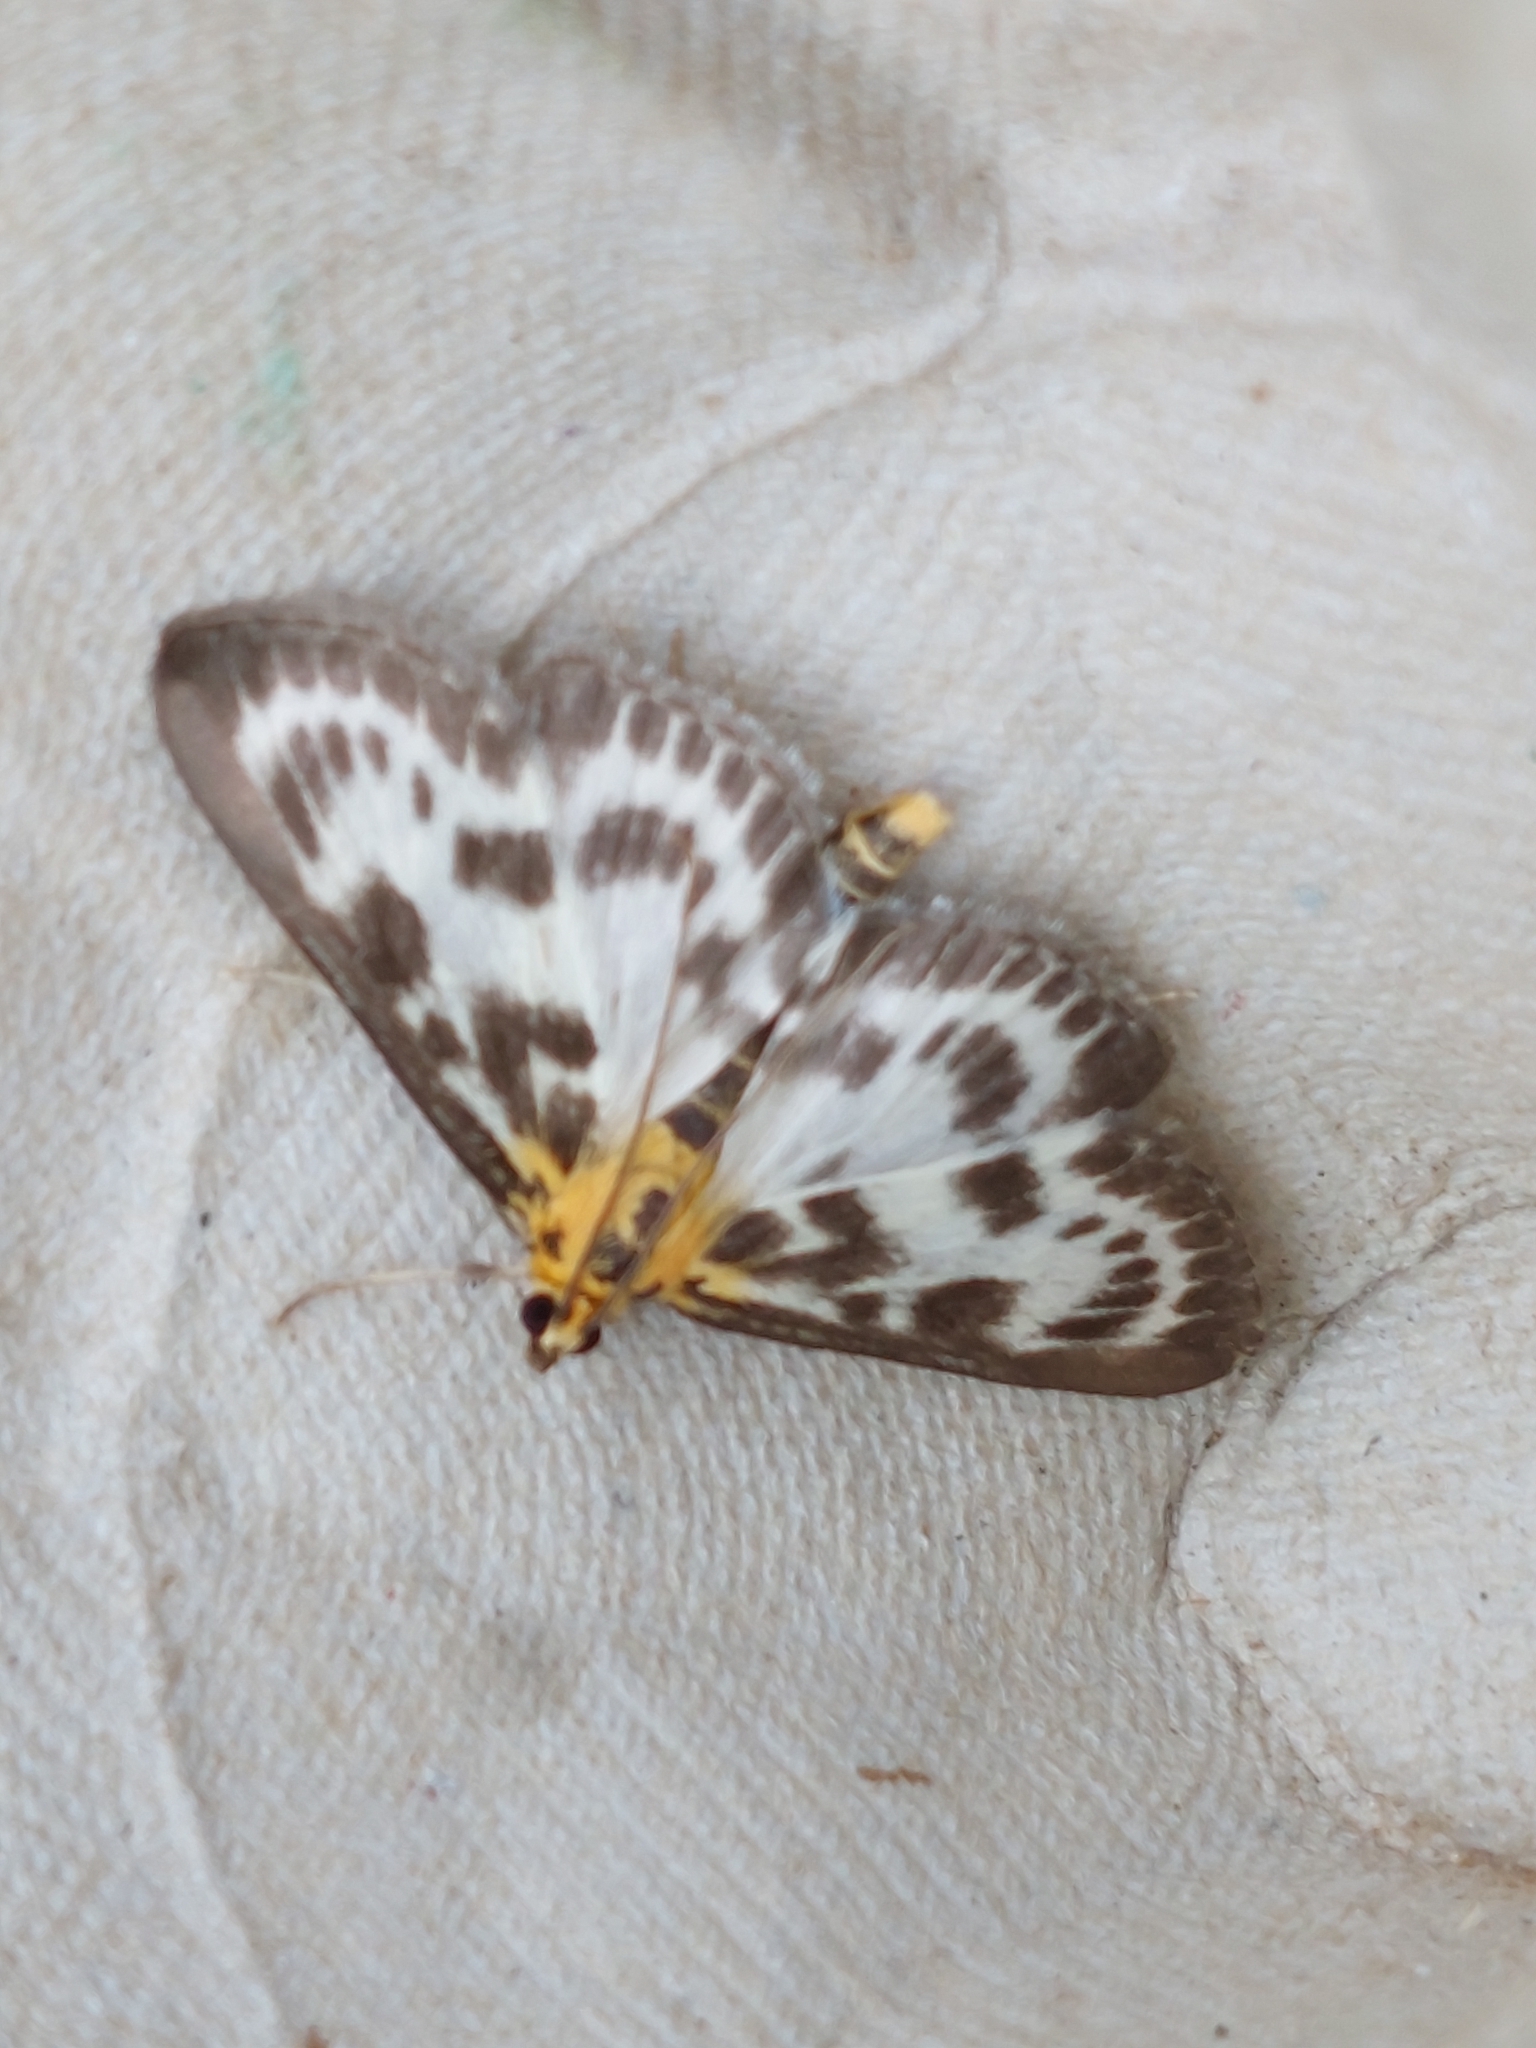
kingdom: Animalia
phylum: Arthropoda
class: Insecta
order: Lepidoptera
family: Crambidae
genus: Anania
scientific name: Anania hortulata
